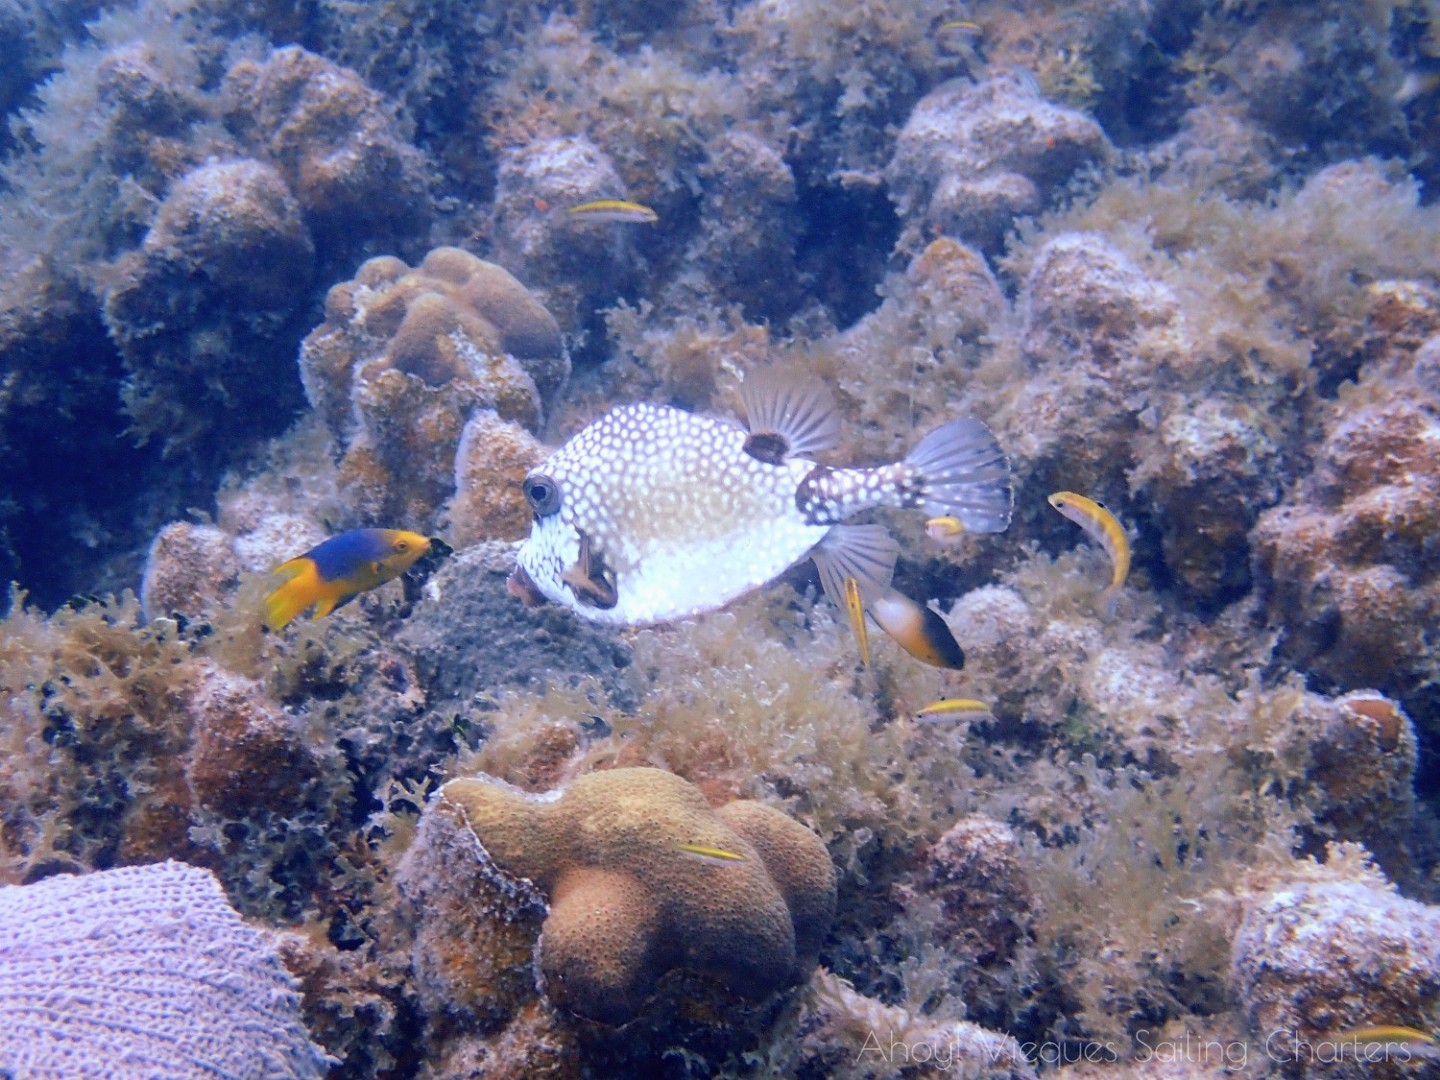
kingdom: Animalia
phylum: Chordata
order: Tetraodontiformes
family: Ostraciidae
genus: Lactophrys
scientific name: Lactophrys triqueter
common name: Smooth trunkfish
